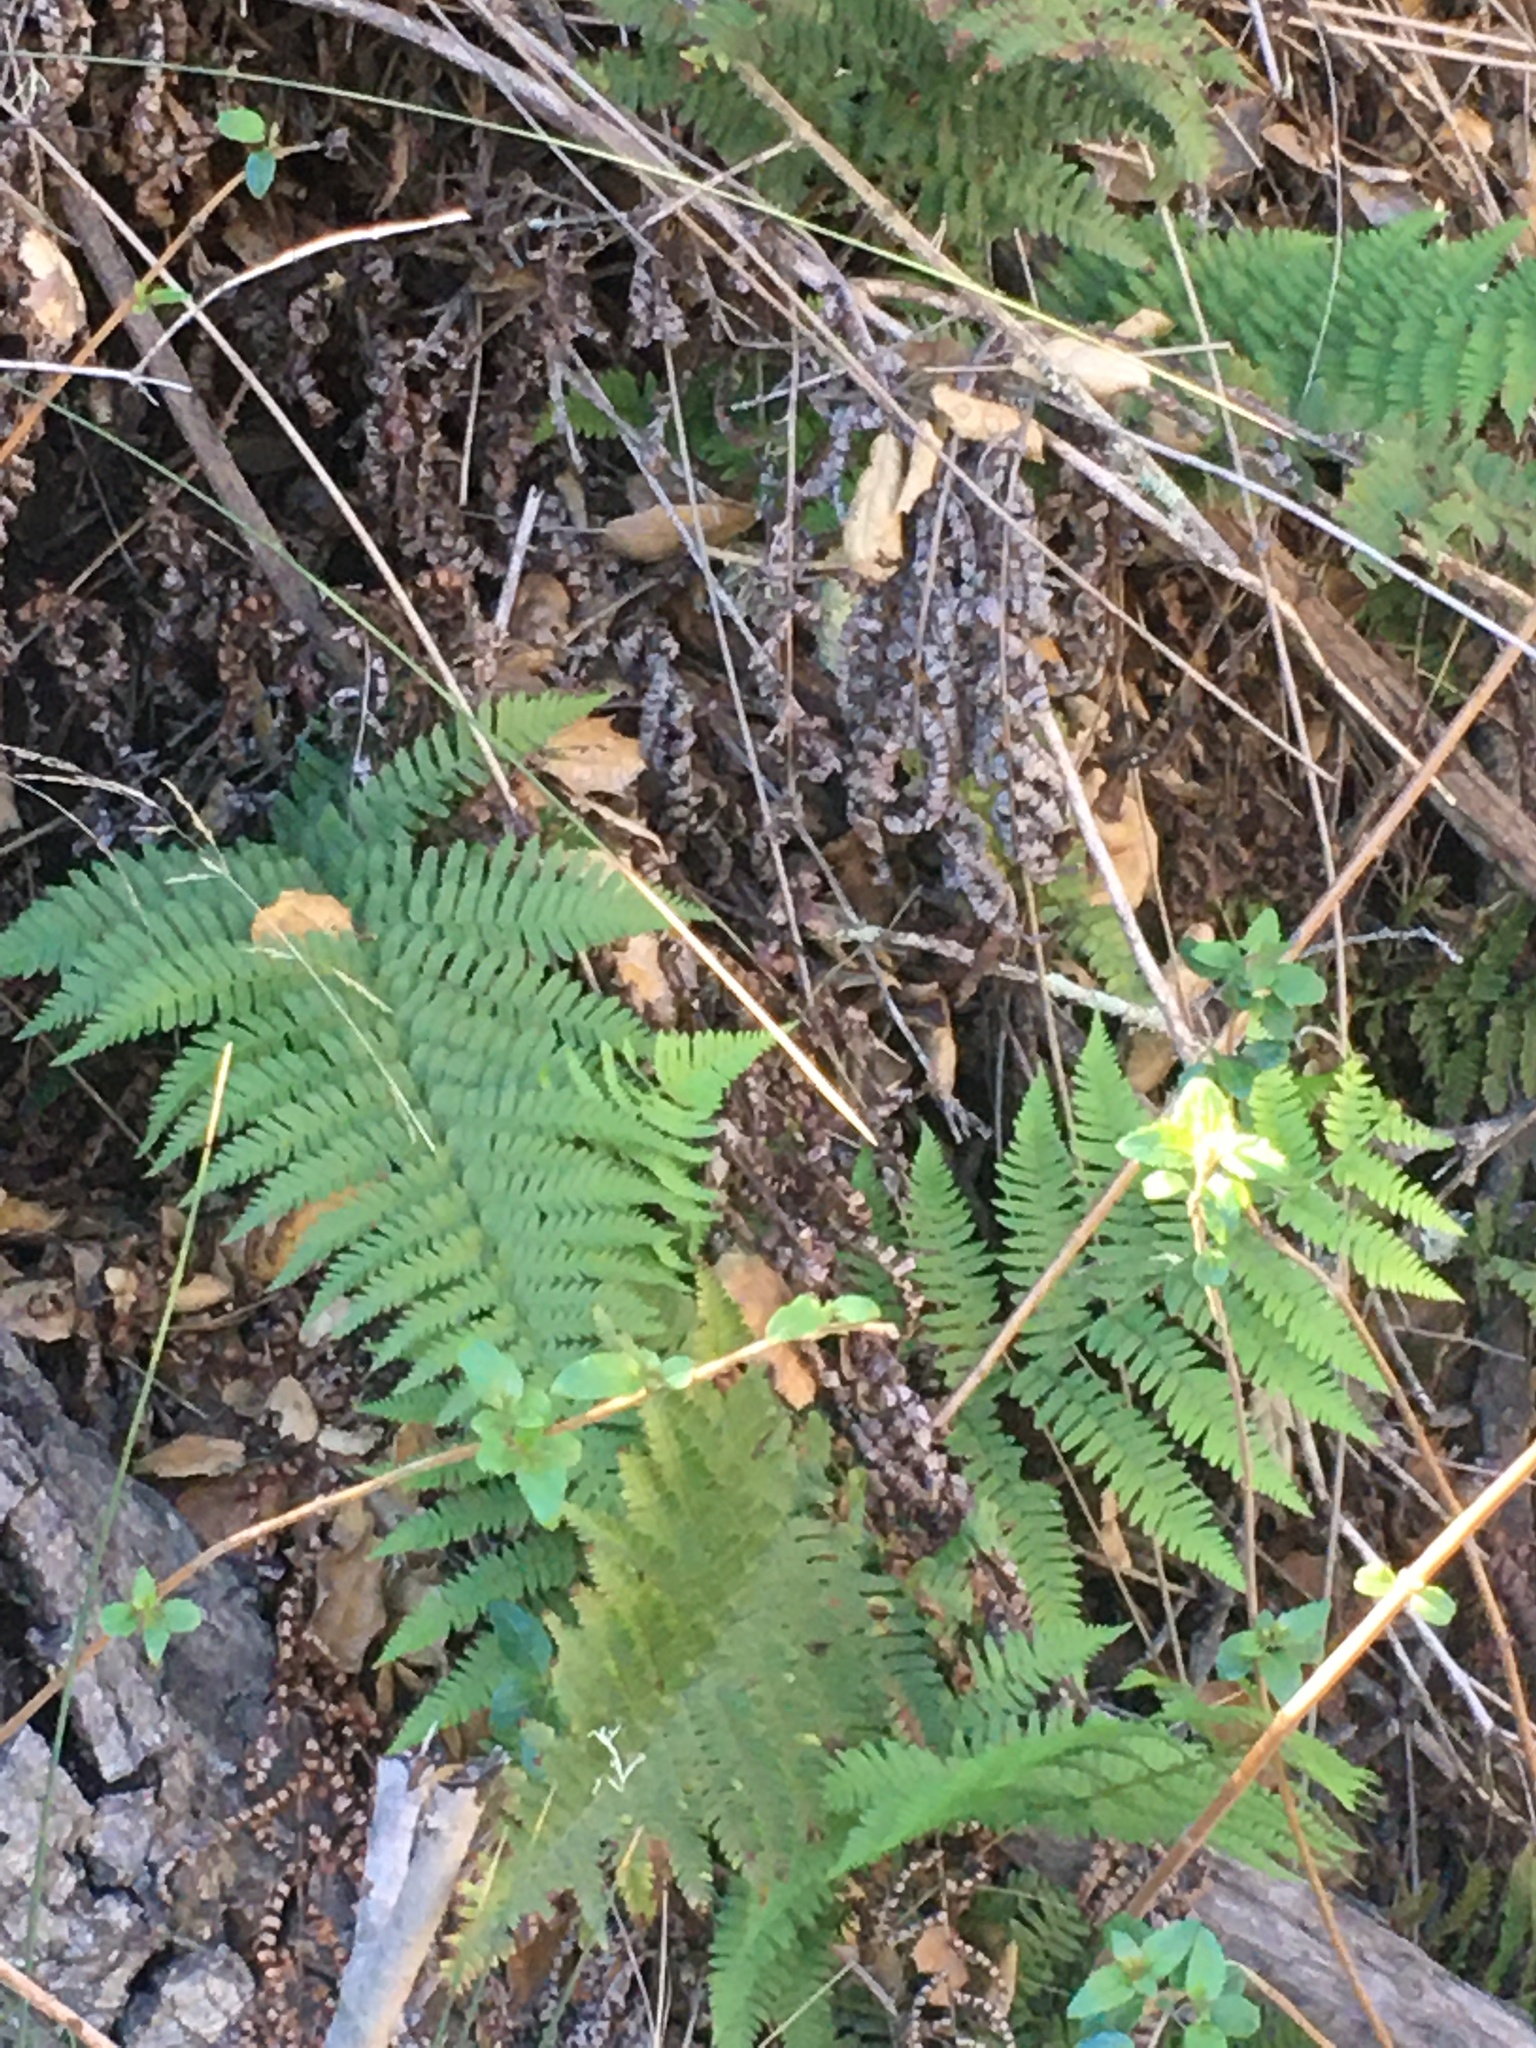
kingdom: Plantae
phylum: Tracheophyta
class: Polypodiopsida
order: Polypodiales
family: Dryopteridaceae
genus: Dryopteris
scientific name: Dryopteris arguta
